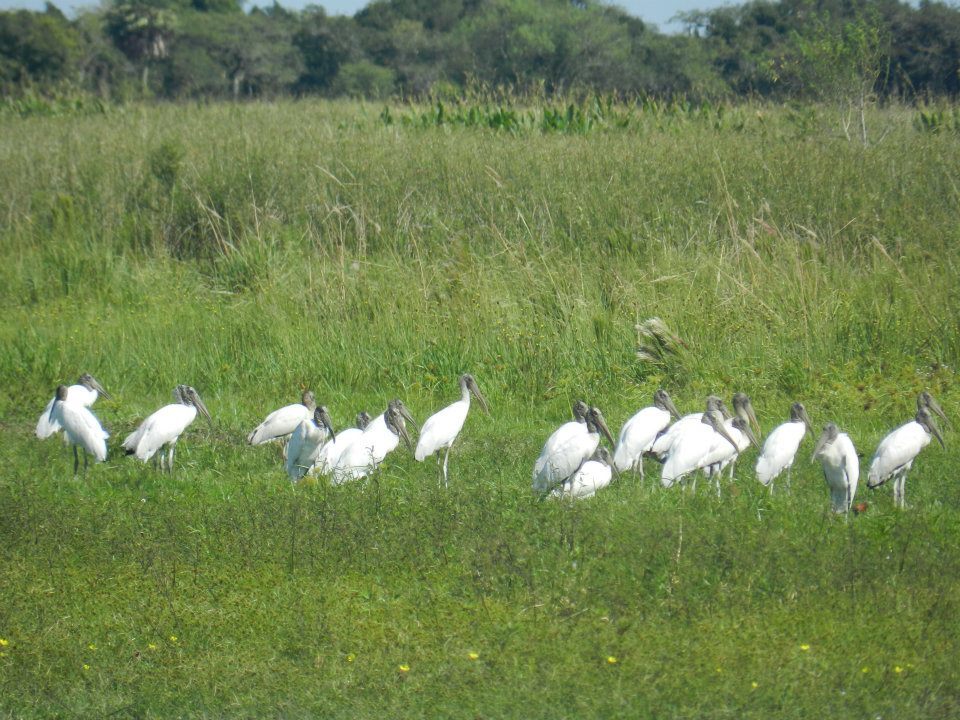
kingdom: Animalia
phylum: Chordata
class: Aves
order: Ciconiiformes
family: Ciconiidae
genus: Mycteria
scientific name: Mycteria americana
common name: Wood stork
